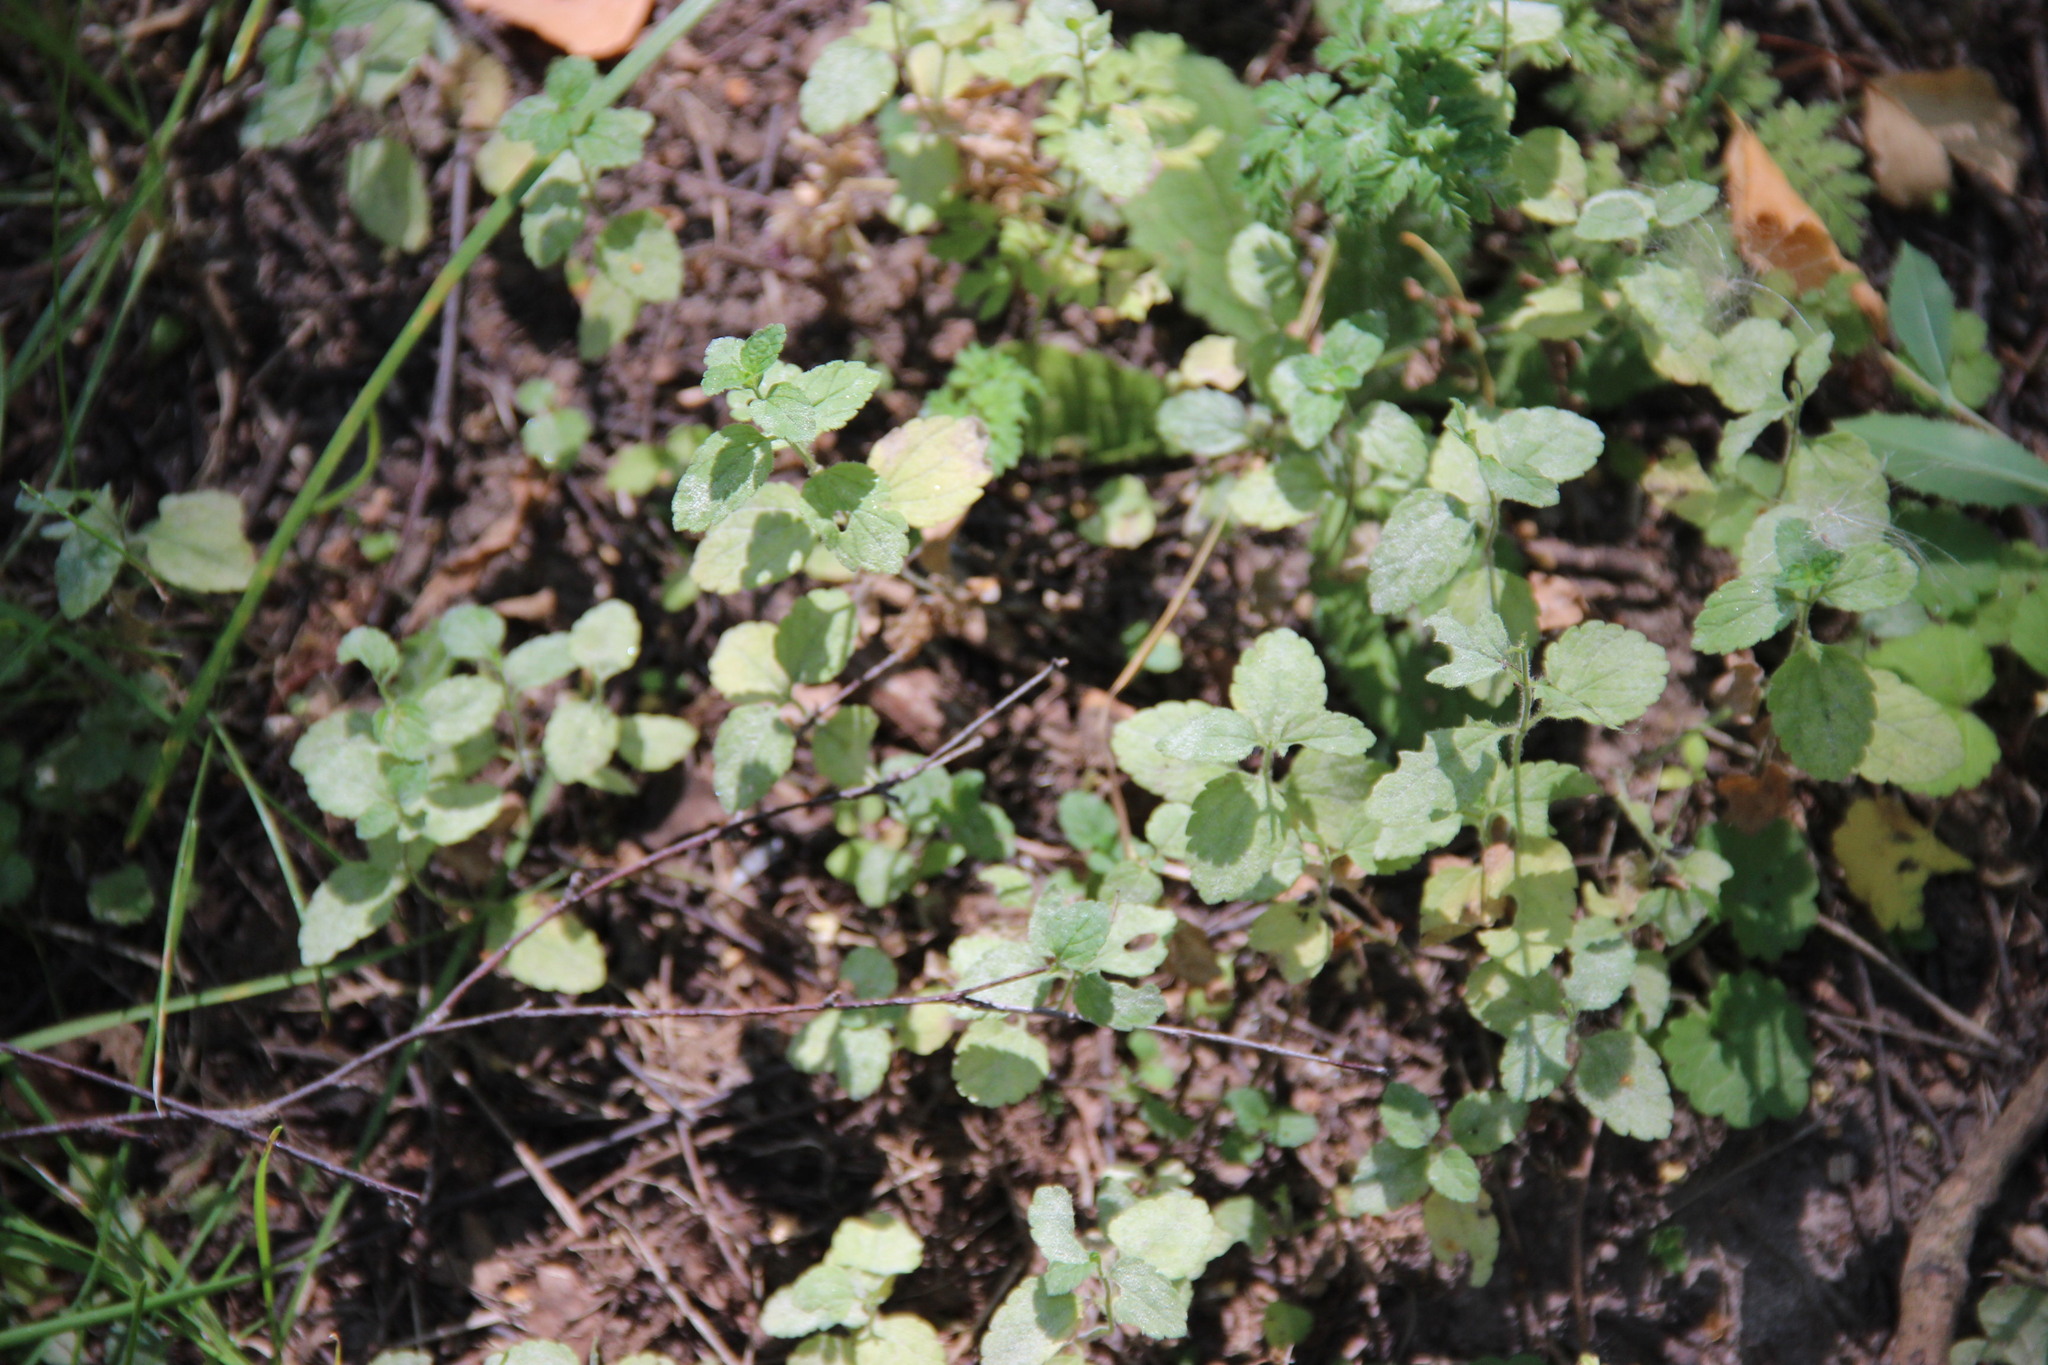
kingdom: Plantae
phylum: Tracheophyta
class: Magnoliopsida
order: Lamiales
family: Plantaginaceae
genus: Veronica
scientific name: Veronica chamaedrys
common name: Germander speedwell
